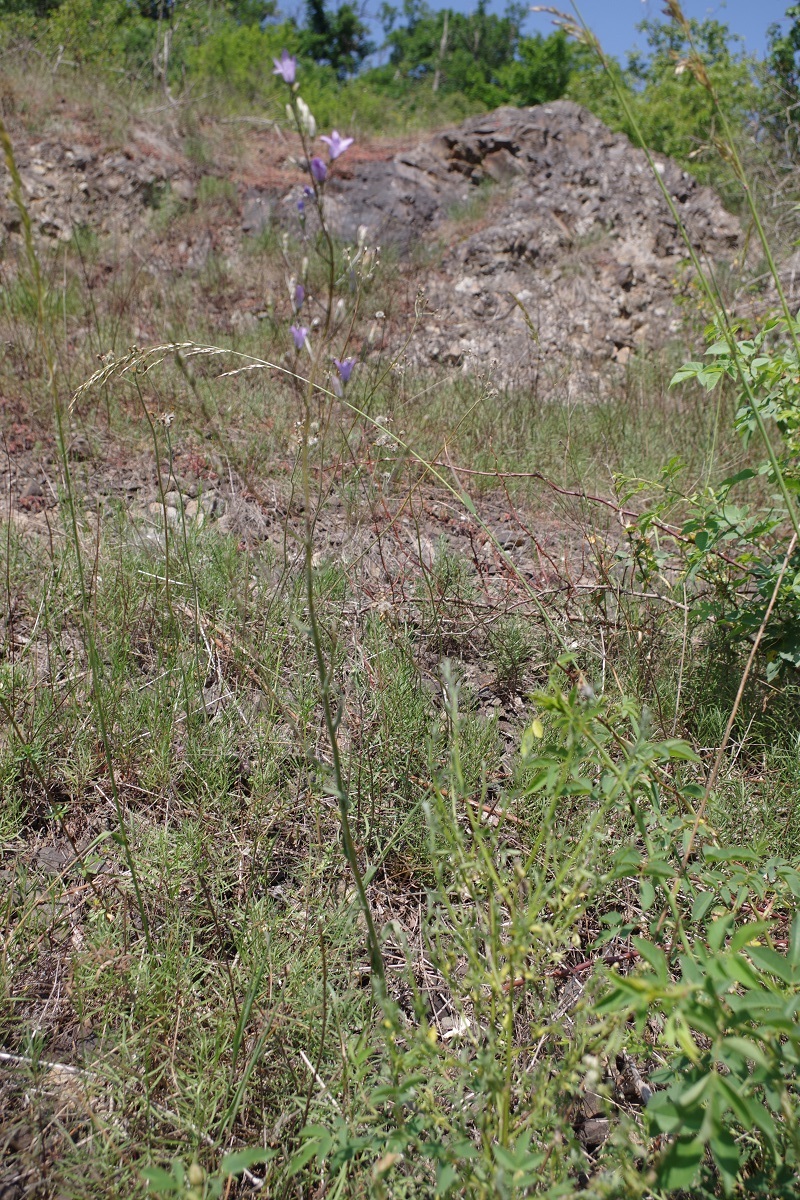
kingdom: Plantae
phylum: Tracheophyta
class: Magnoliopsida
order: Asterales
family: Campanulaceae
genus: Campanula
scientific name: Campanula rapunculus
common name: Rampion bellflower
